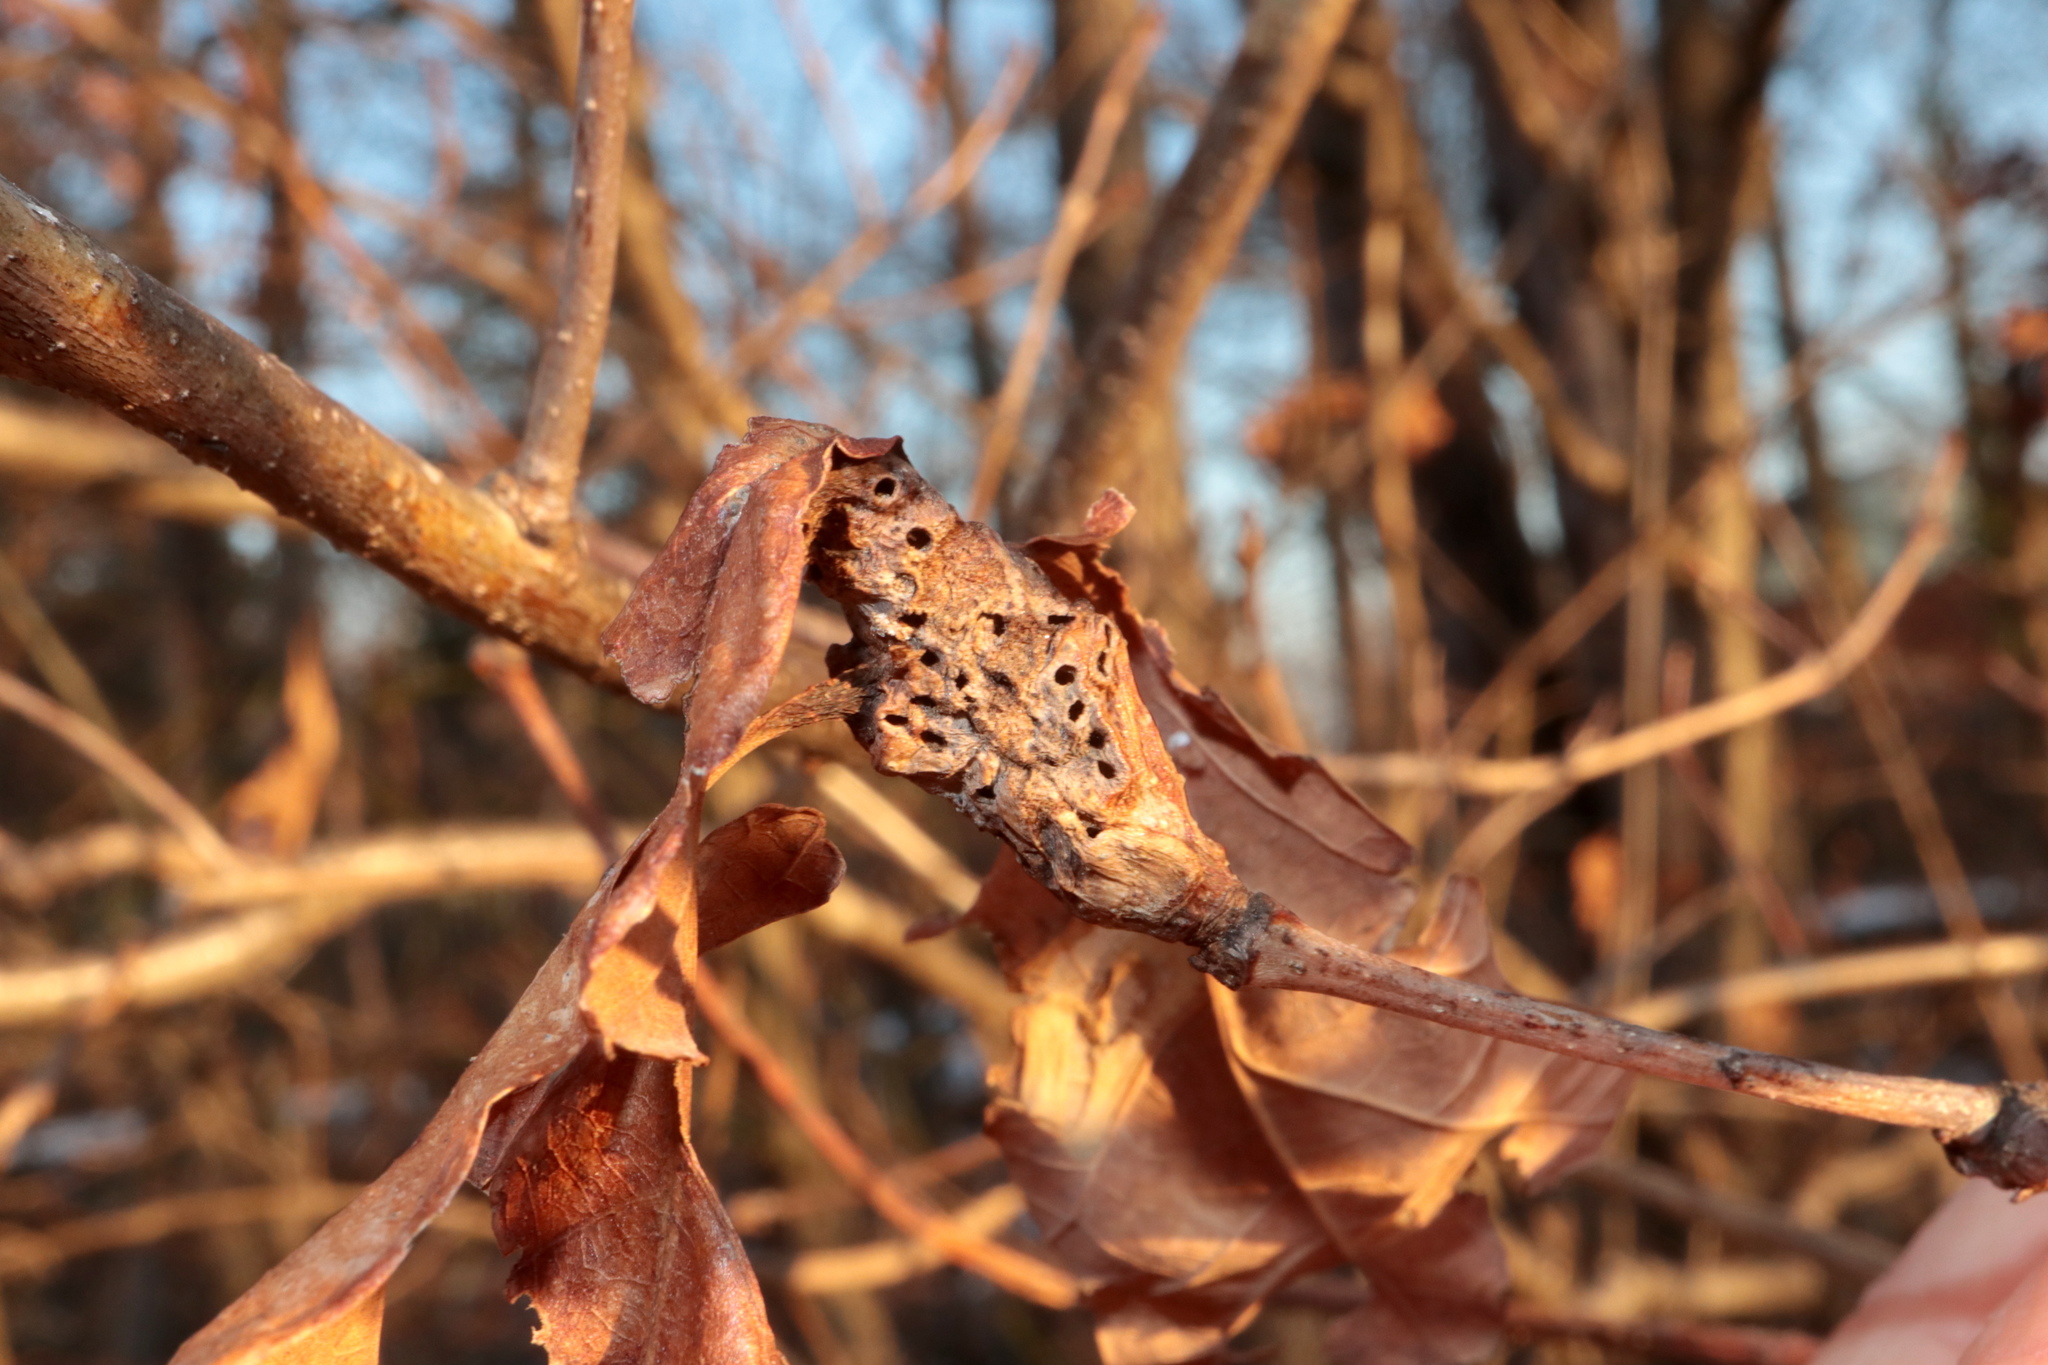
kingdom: Animalia
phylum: Arthropoda
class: Insecta
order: Hymenoptera
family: Cynipidae
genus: Neuroterus
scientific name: Neuroterus quercusbaccarum
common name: Common spangle gall
